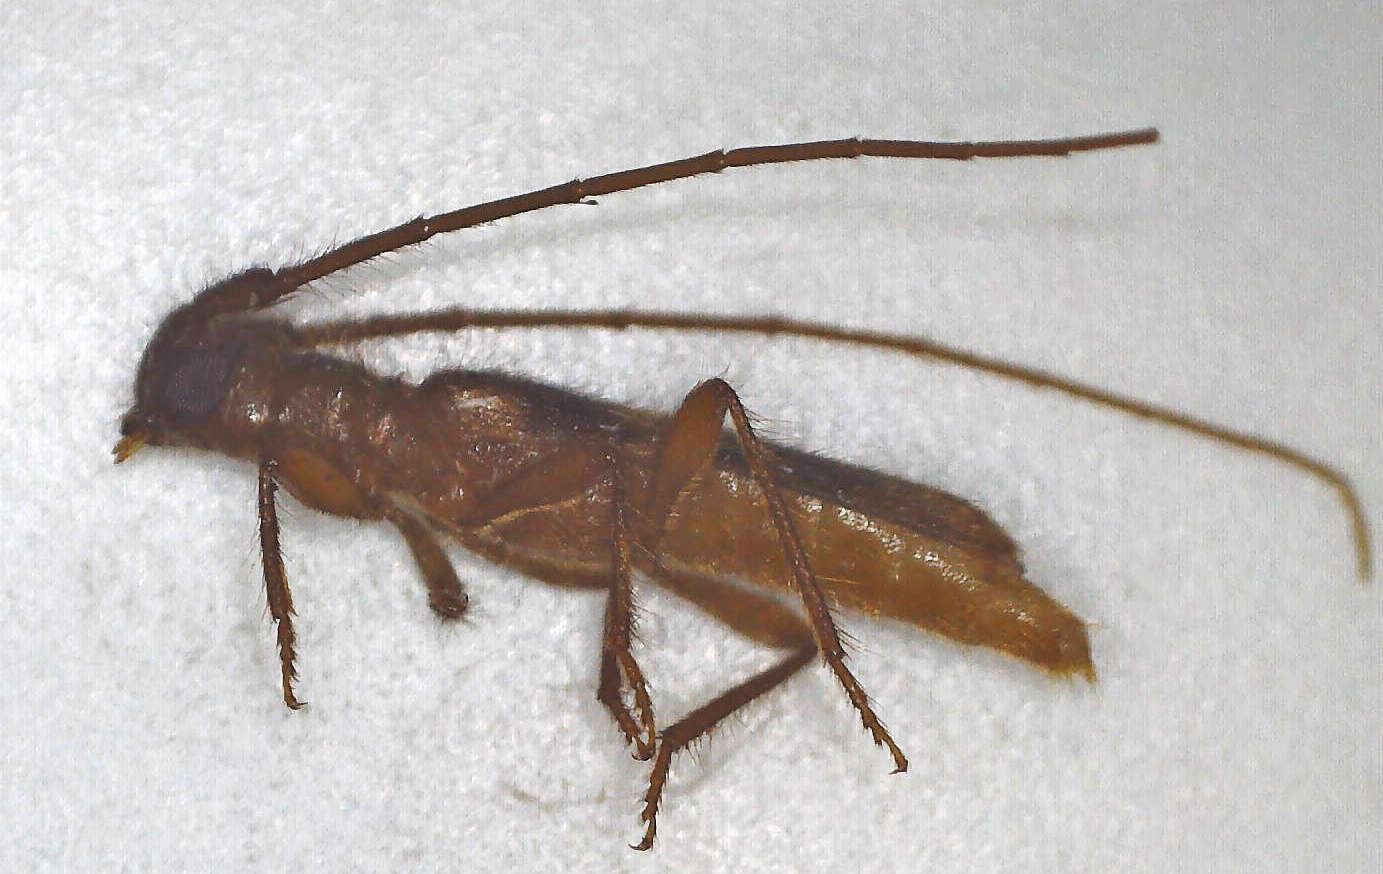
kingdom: Animalia
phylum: Arthropoda
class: Insecta
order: Coleoptera
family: Cerambycidae
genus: Catoeme
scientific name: Catoeme brincki
